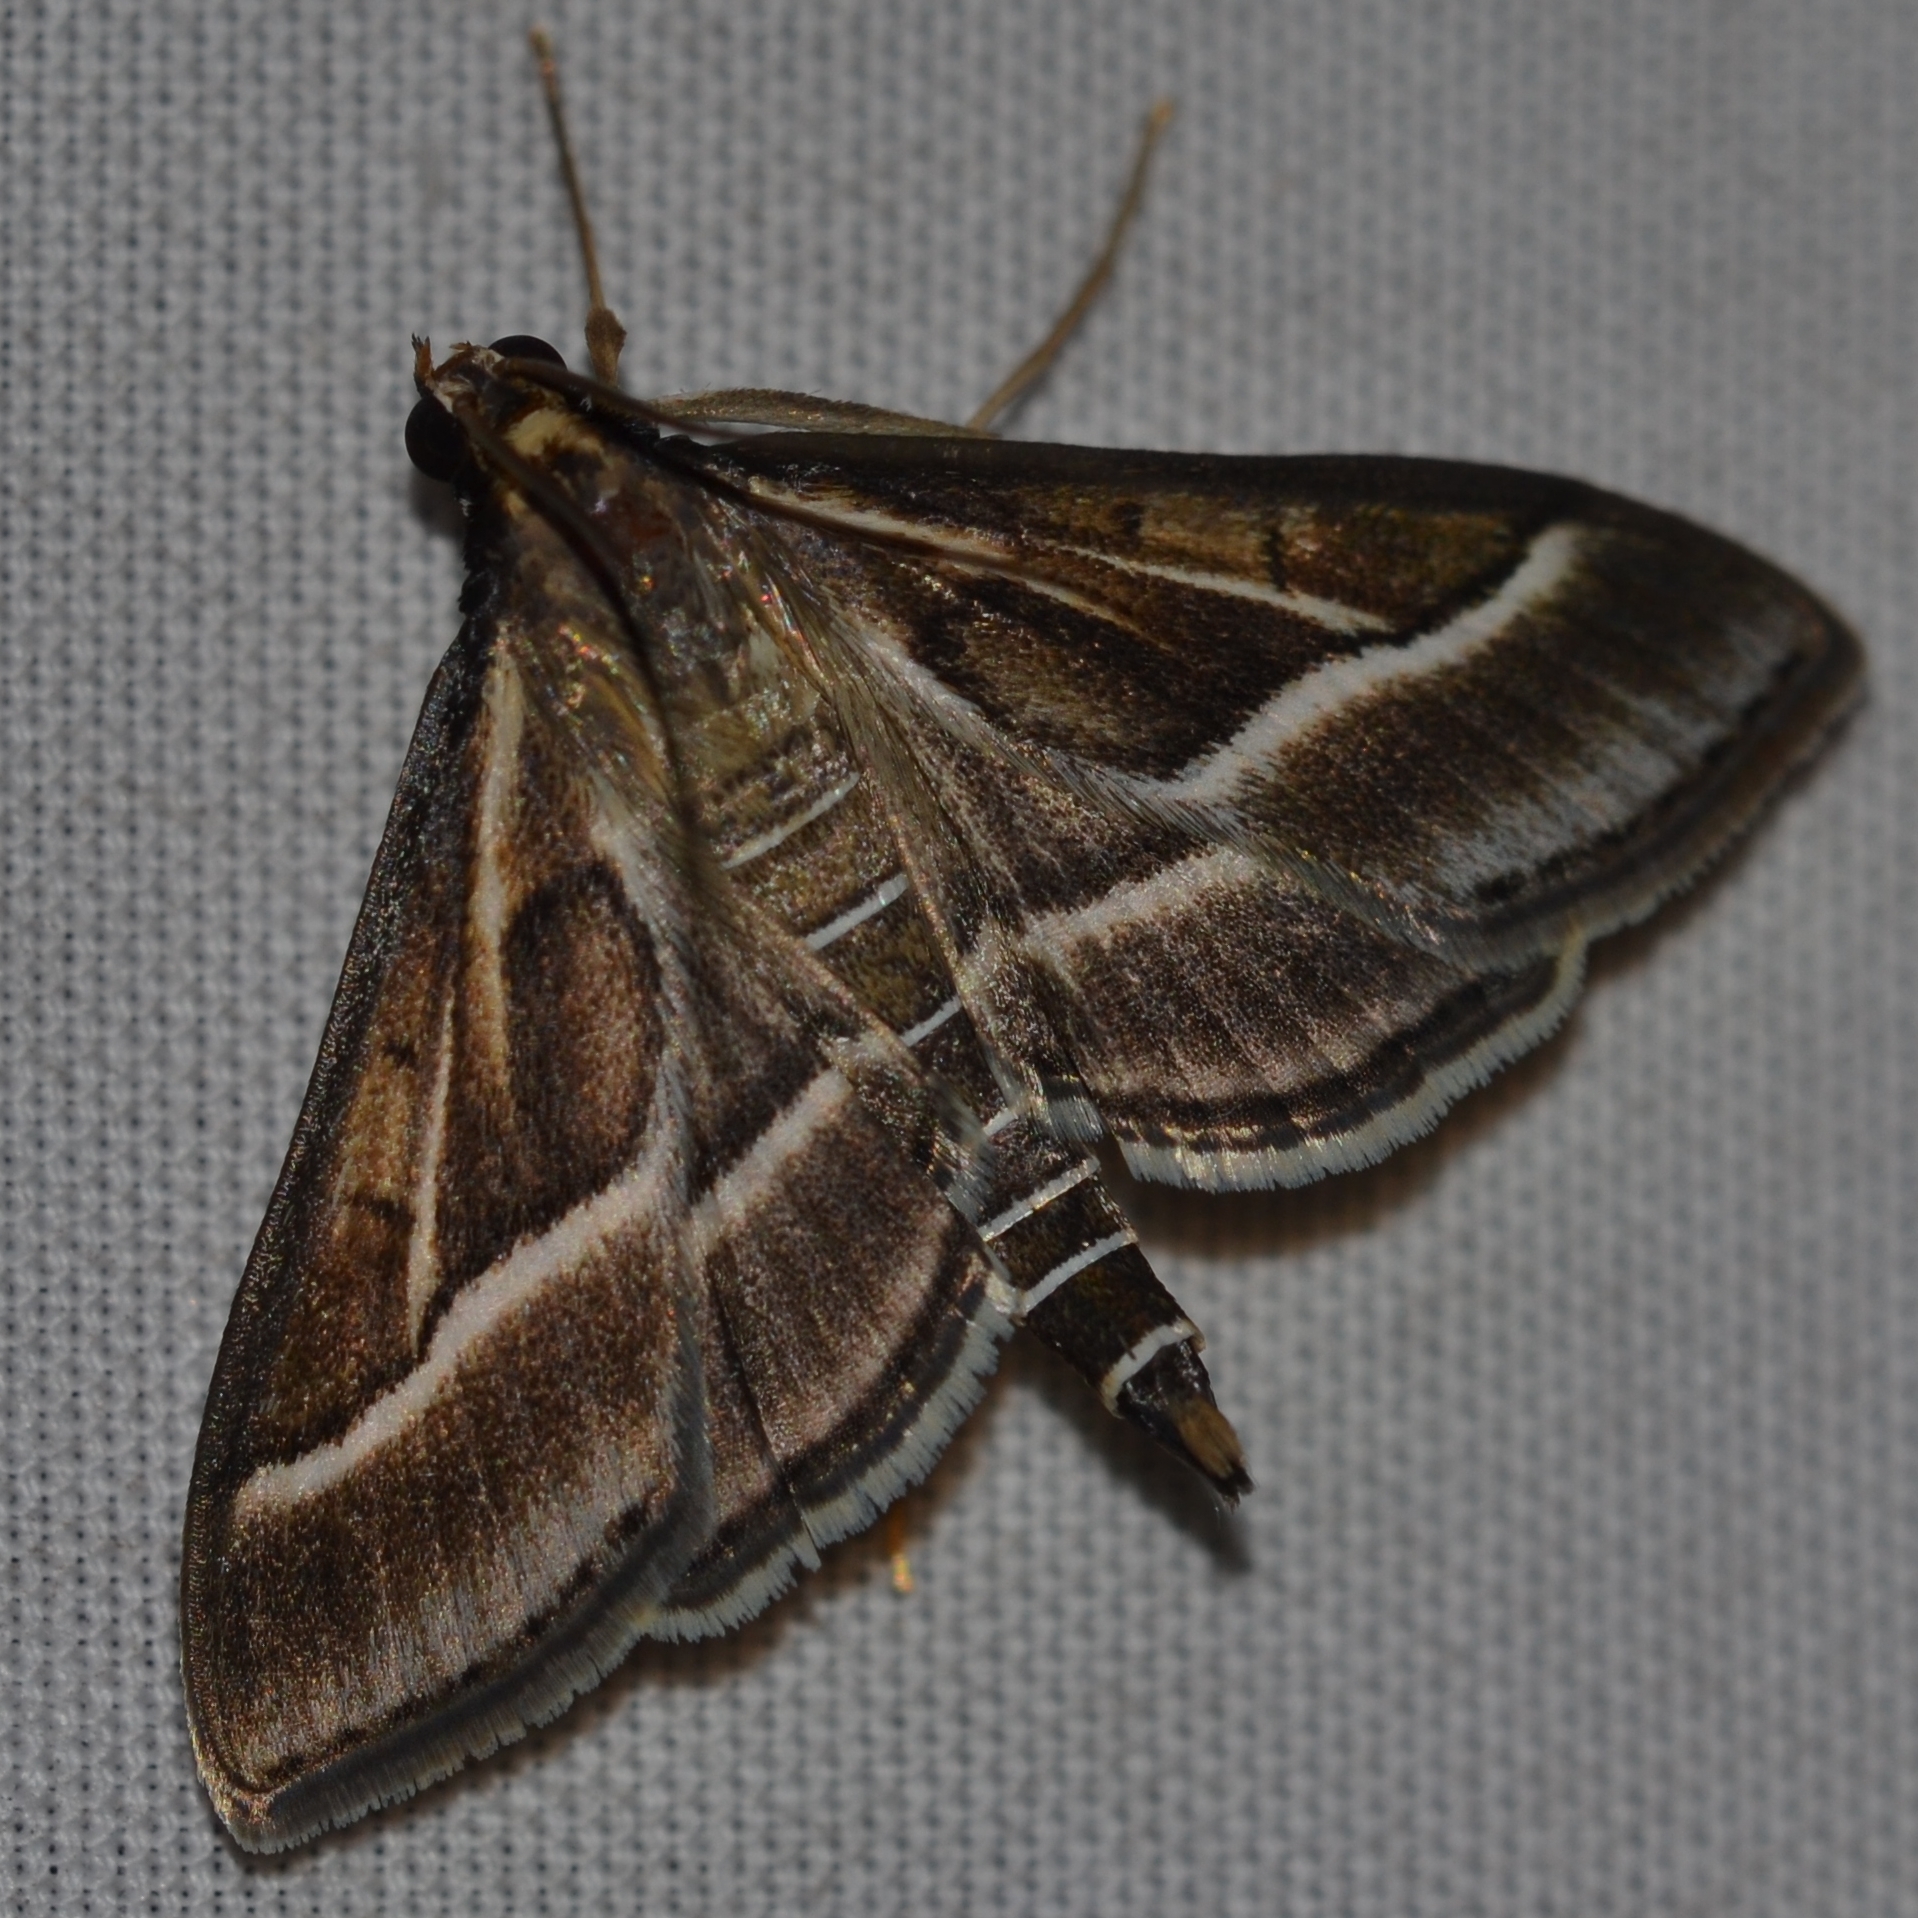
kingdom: Animalia
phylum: Arthropoda
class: Insecta
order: Lepidoptera
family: Crambidae
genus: Omiodes
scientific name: Omiodes continuatalis
